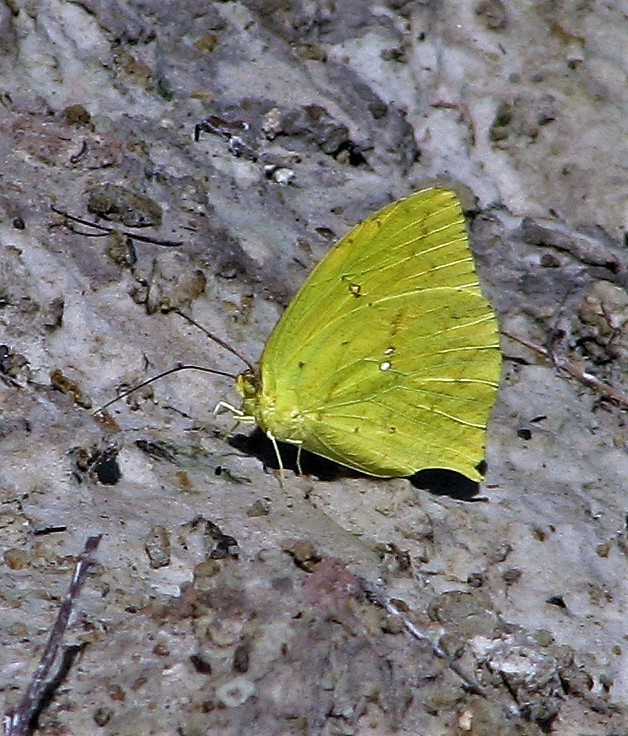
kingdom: Animalia
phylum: Arthropoda
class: Insecta
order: Lepidoptera
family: Pieridae
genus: Phoebis
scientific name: Phoebis neocypris
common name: Tailed sulphur
